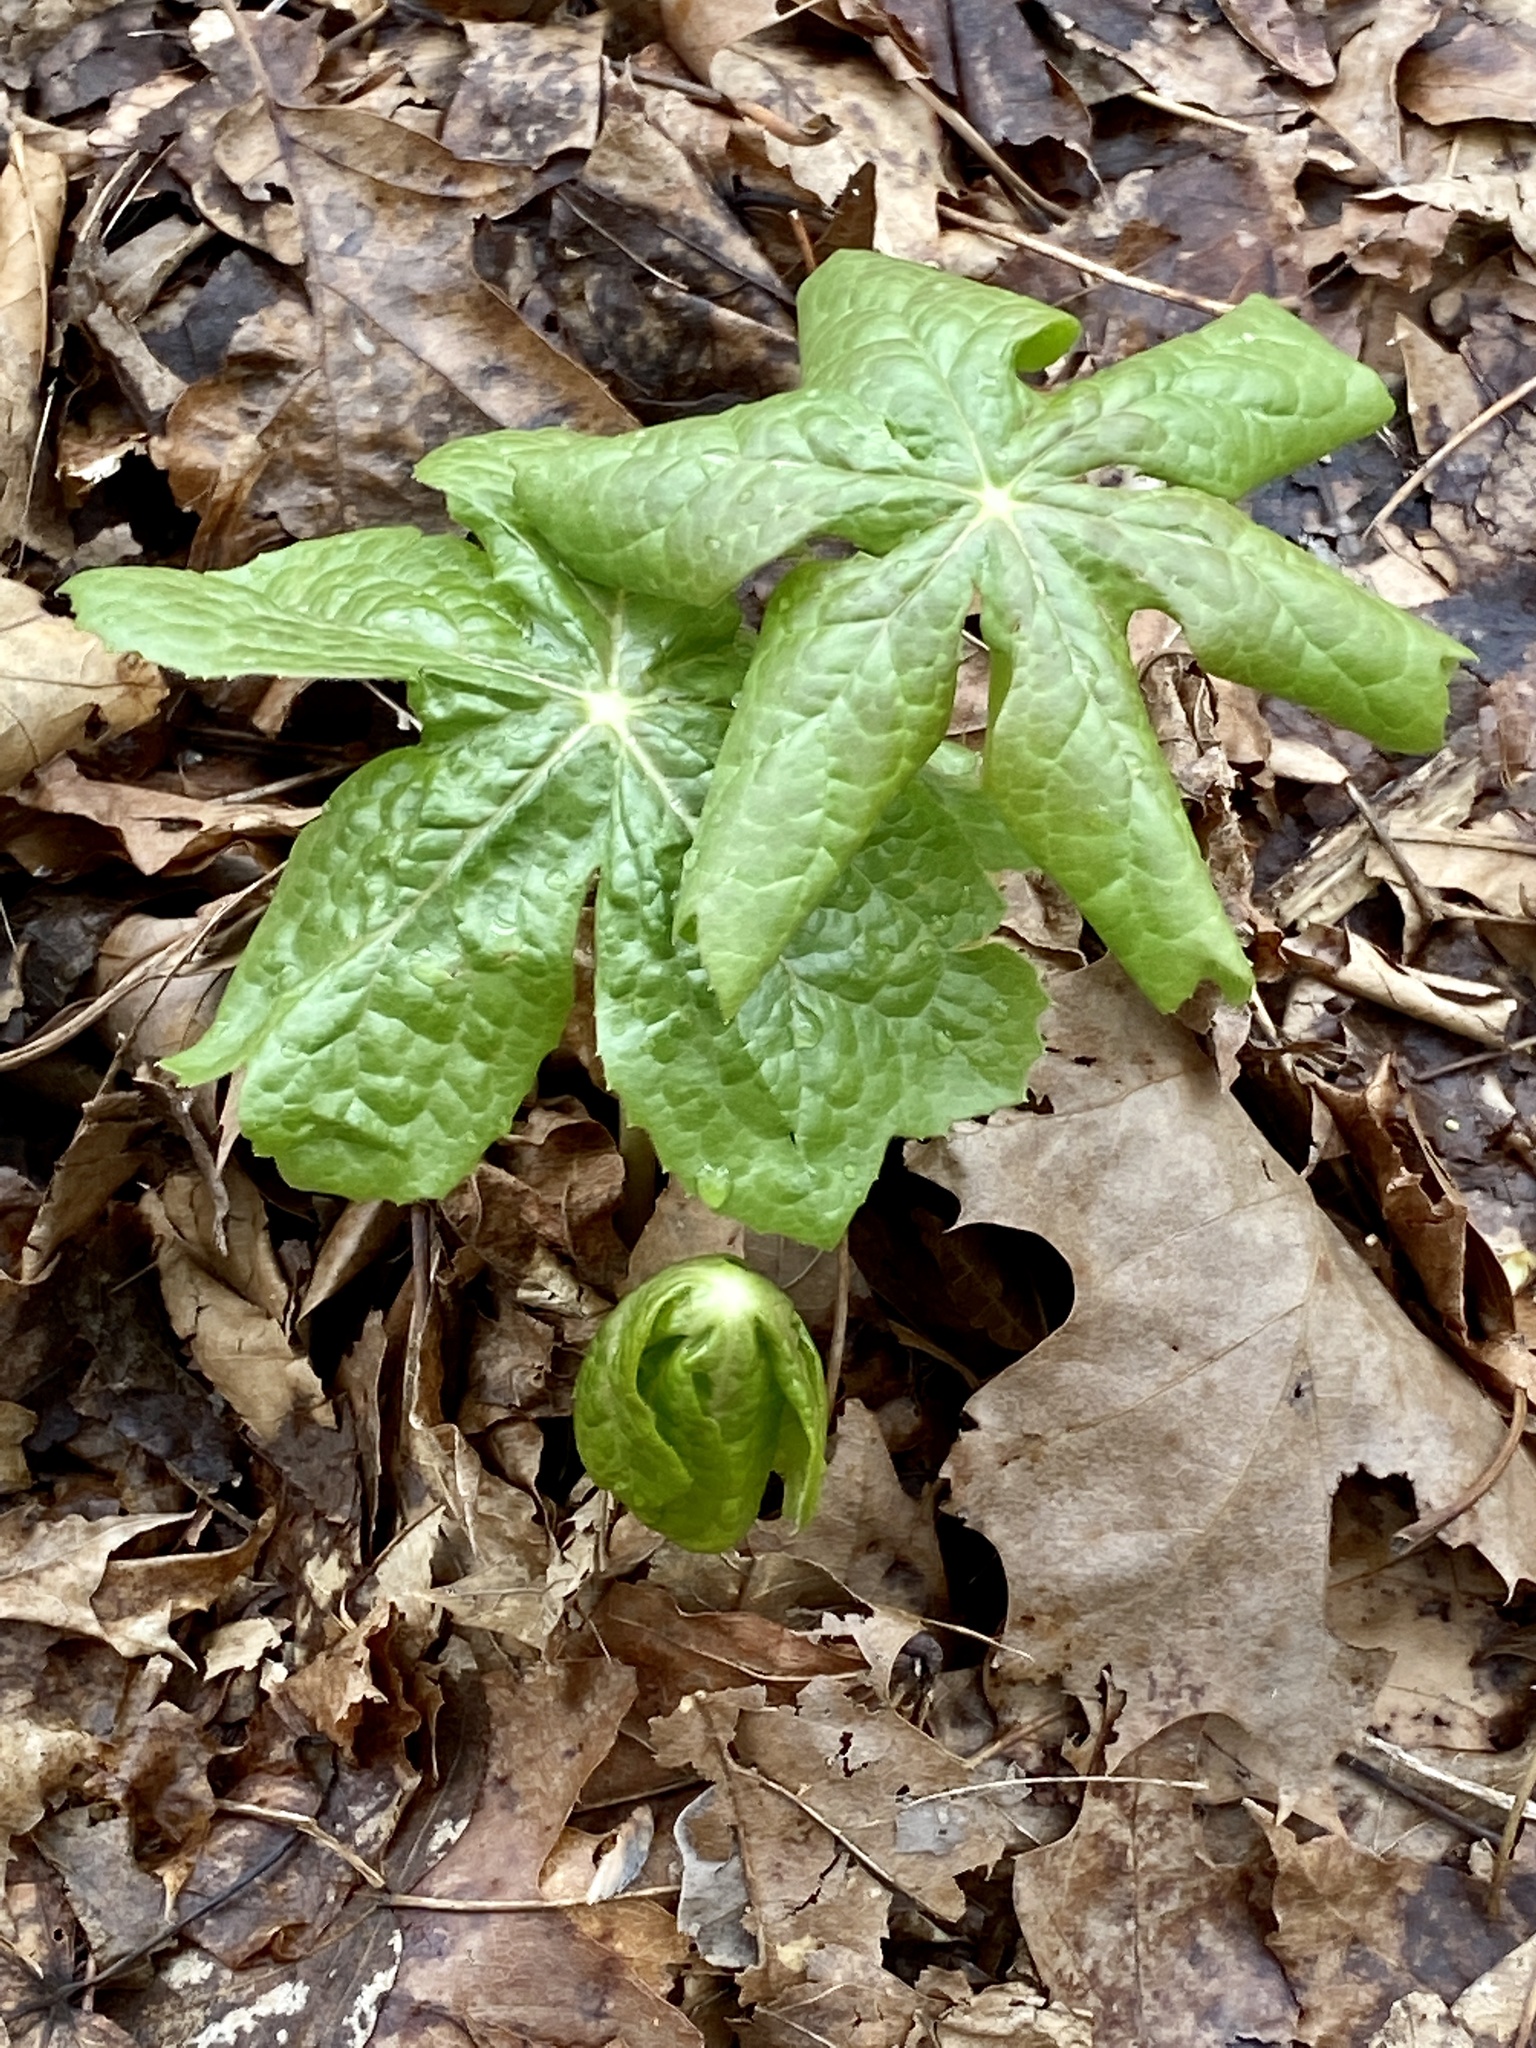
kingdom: Plantae
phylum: Tracheophyta
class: Magnoliopsida
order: Ranunculales
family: Berberidaceae
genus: Podophyllum
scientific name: Podophyllum peltatum
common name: Wild mandrake
